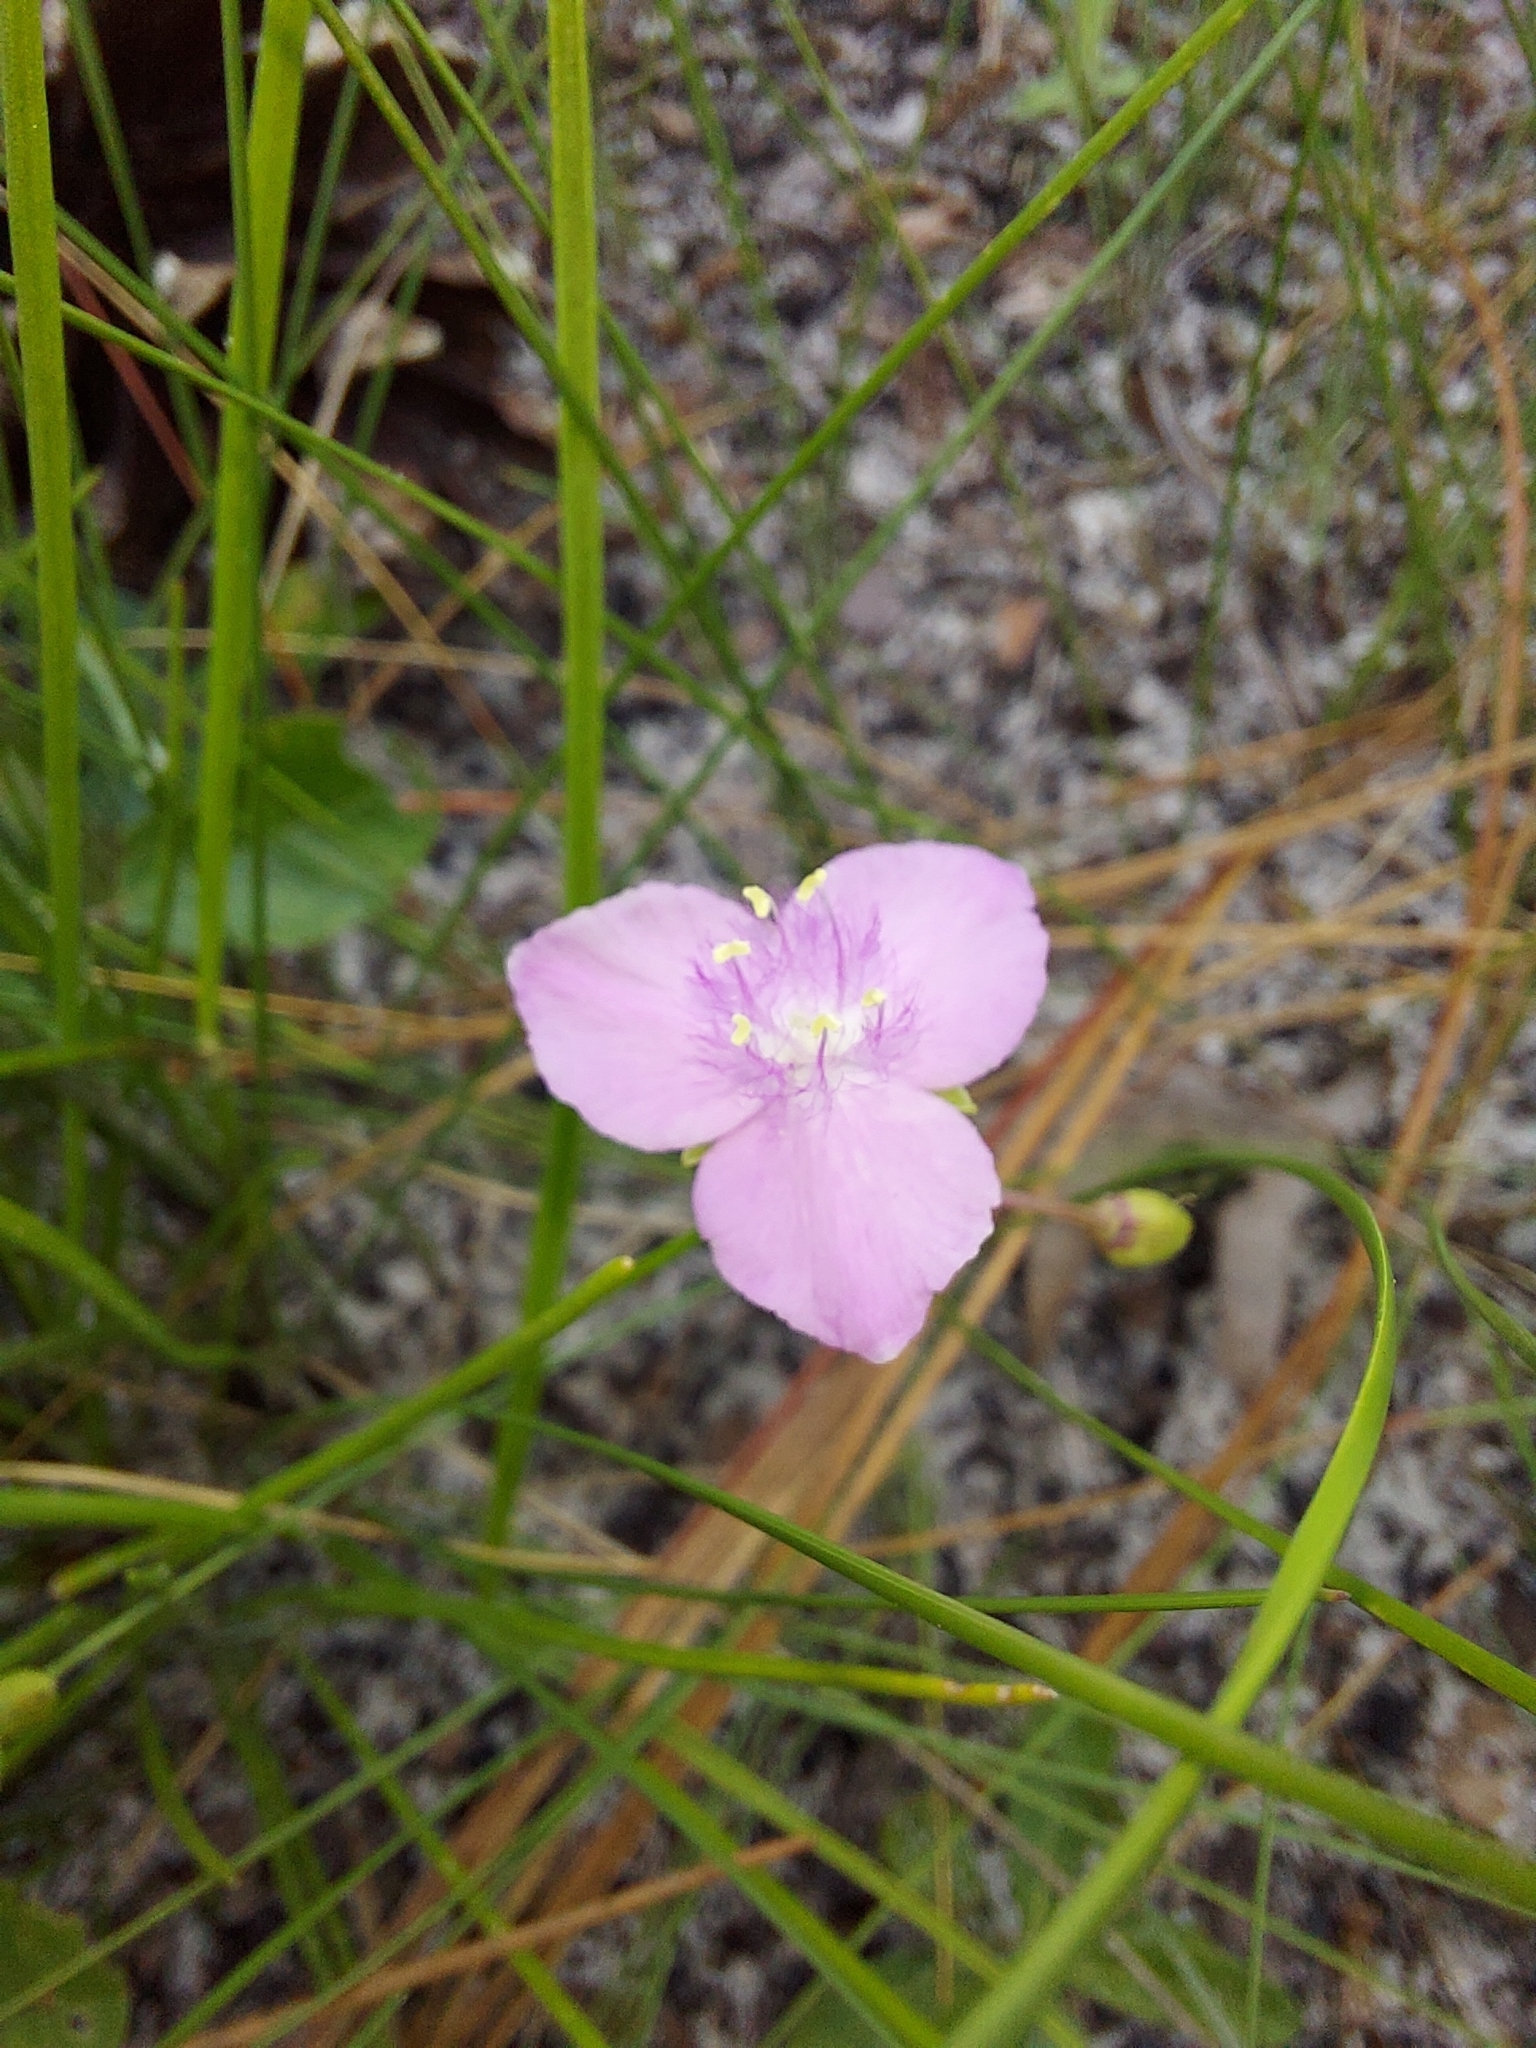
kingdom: Plantae
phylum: Tracheophyta
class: Liliopsida
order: Commelinales
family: Commelinaceae
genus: Callisia
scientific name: Callisia graminea
